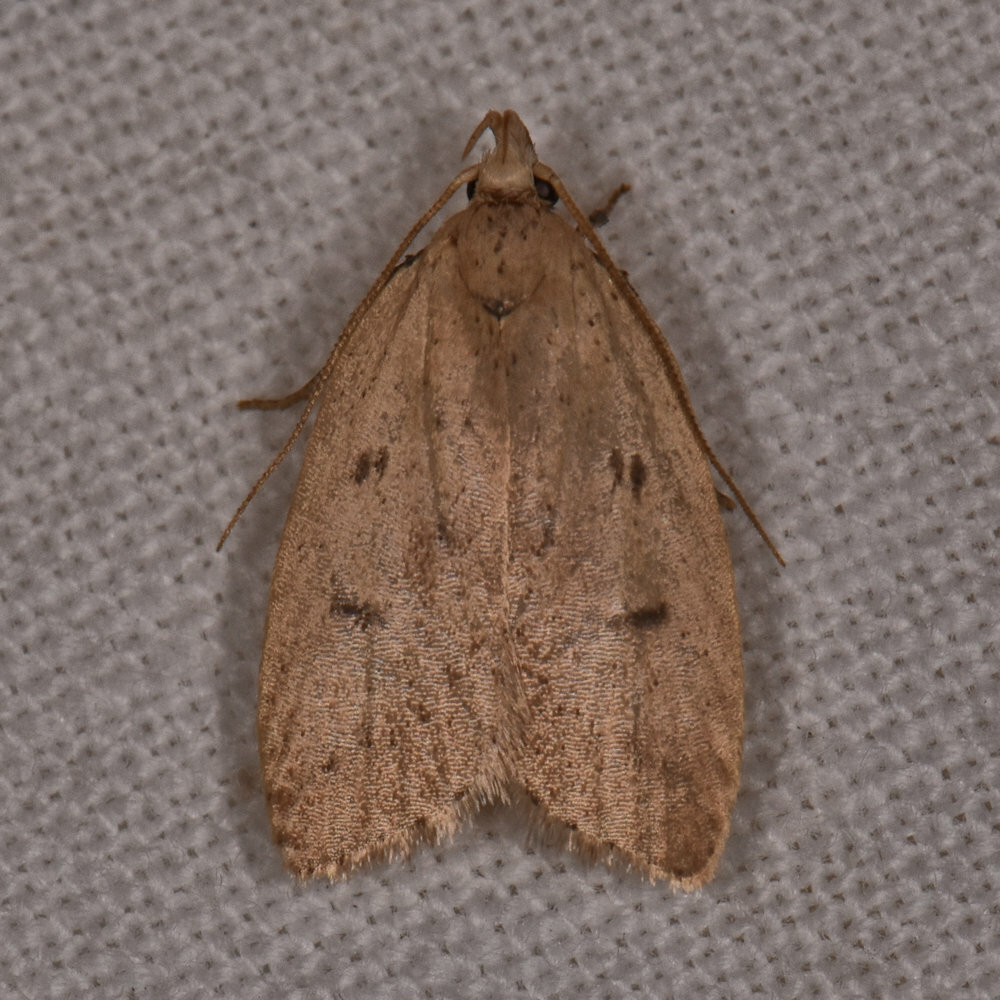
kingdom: Animalia
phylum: Arthropoda
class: Insecta
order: Lepidoptera
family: Peleopodidae
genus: Machimia
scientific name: Machimia tentoriferella
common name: Gold-striped leaftier moth
